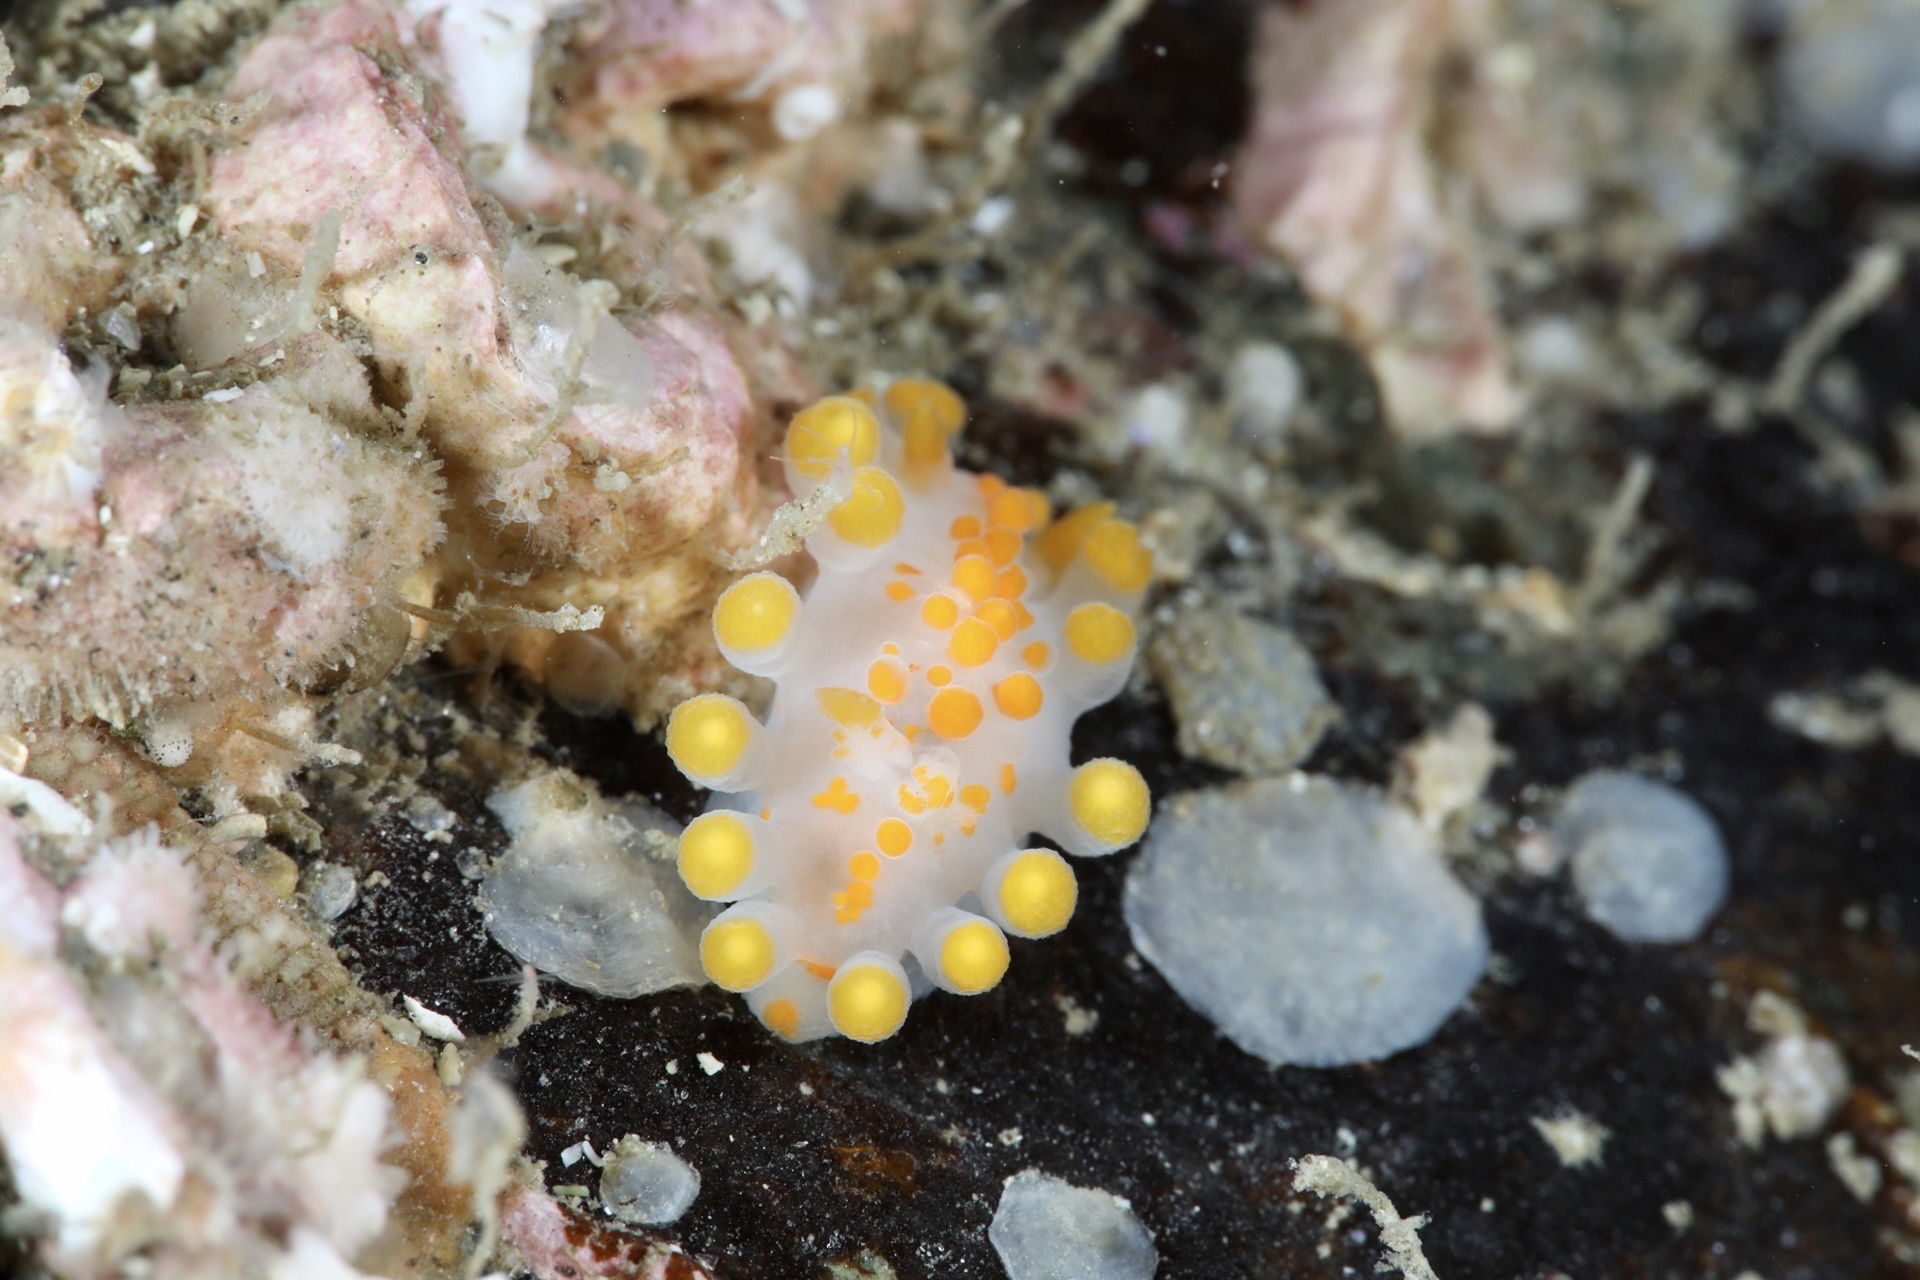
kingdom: Animalia
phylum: Mollusca
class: Gastropoda
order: Nudibranchia
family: Polyceridae
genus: Limacia
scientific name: Limacia clavigera
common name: Orange-clubbed sea slug
